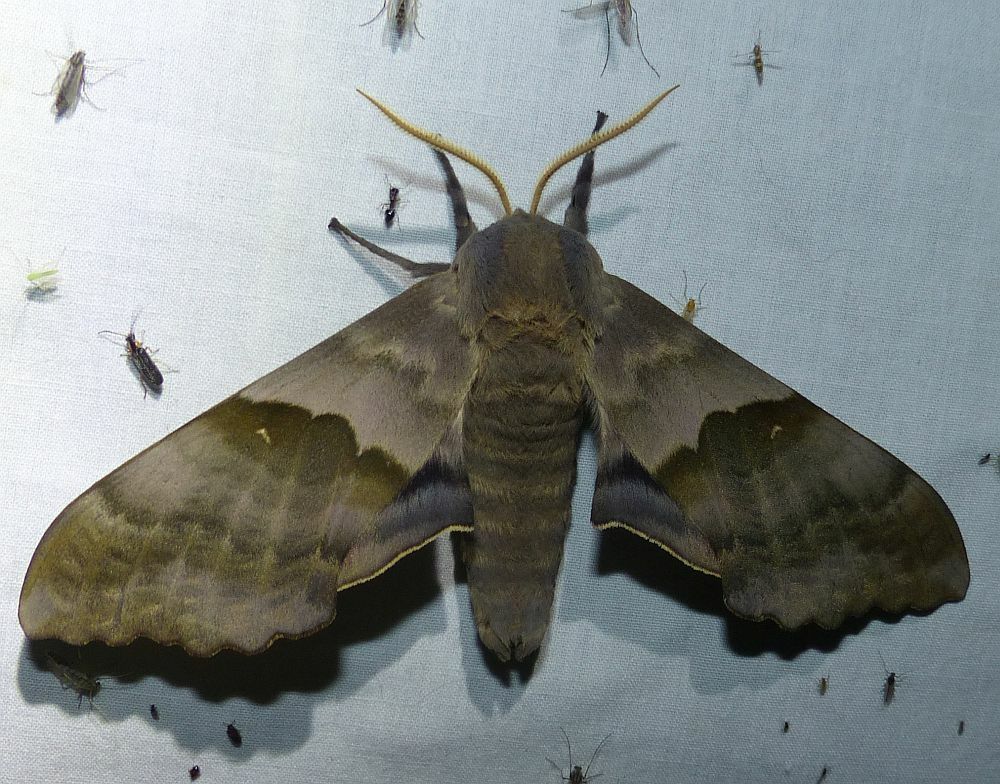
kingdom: Animalia
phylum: Arthropoda
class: Insecta
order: Lepidoptera
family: Sphingidae
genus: Pachysphinx
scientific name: Pachysphinx modesta
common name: Big poplar sphinx
